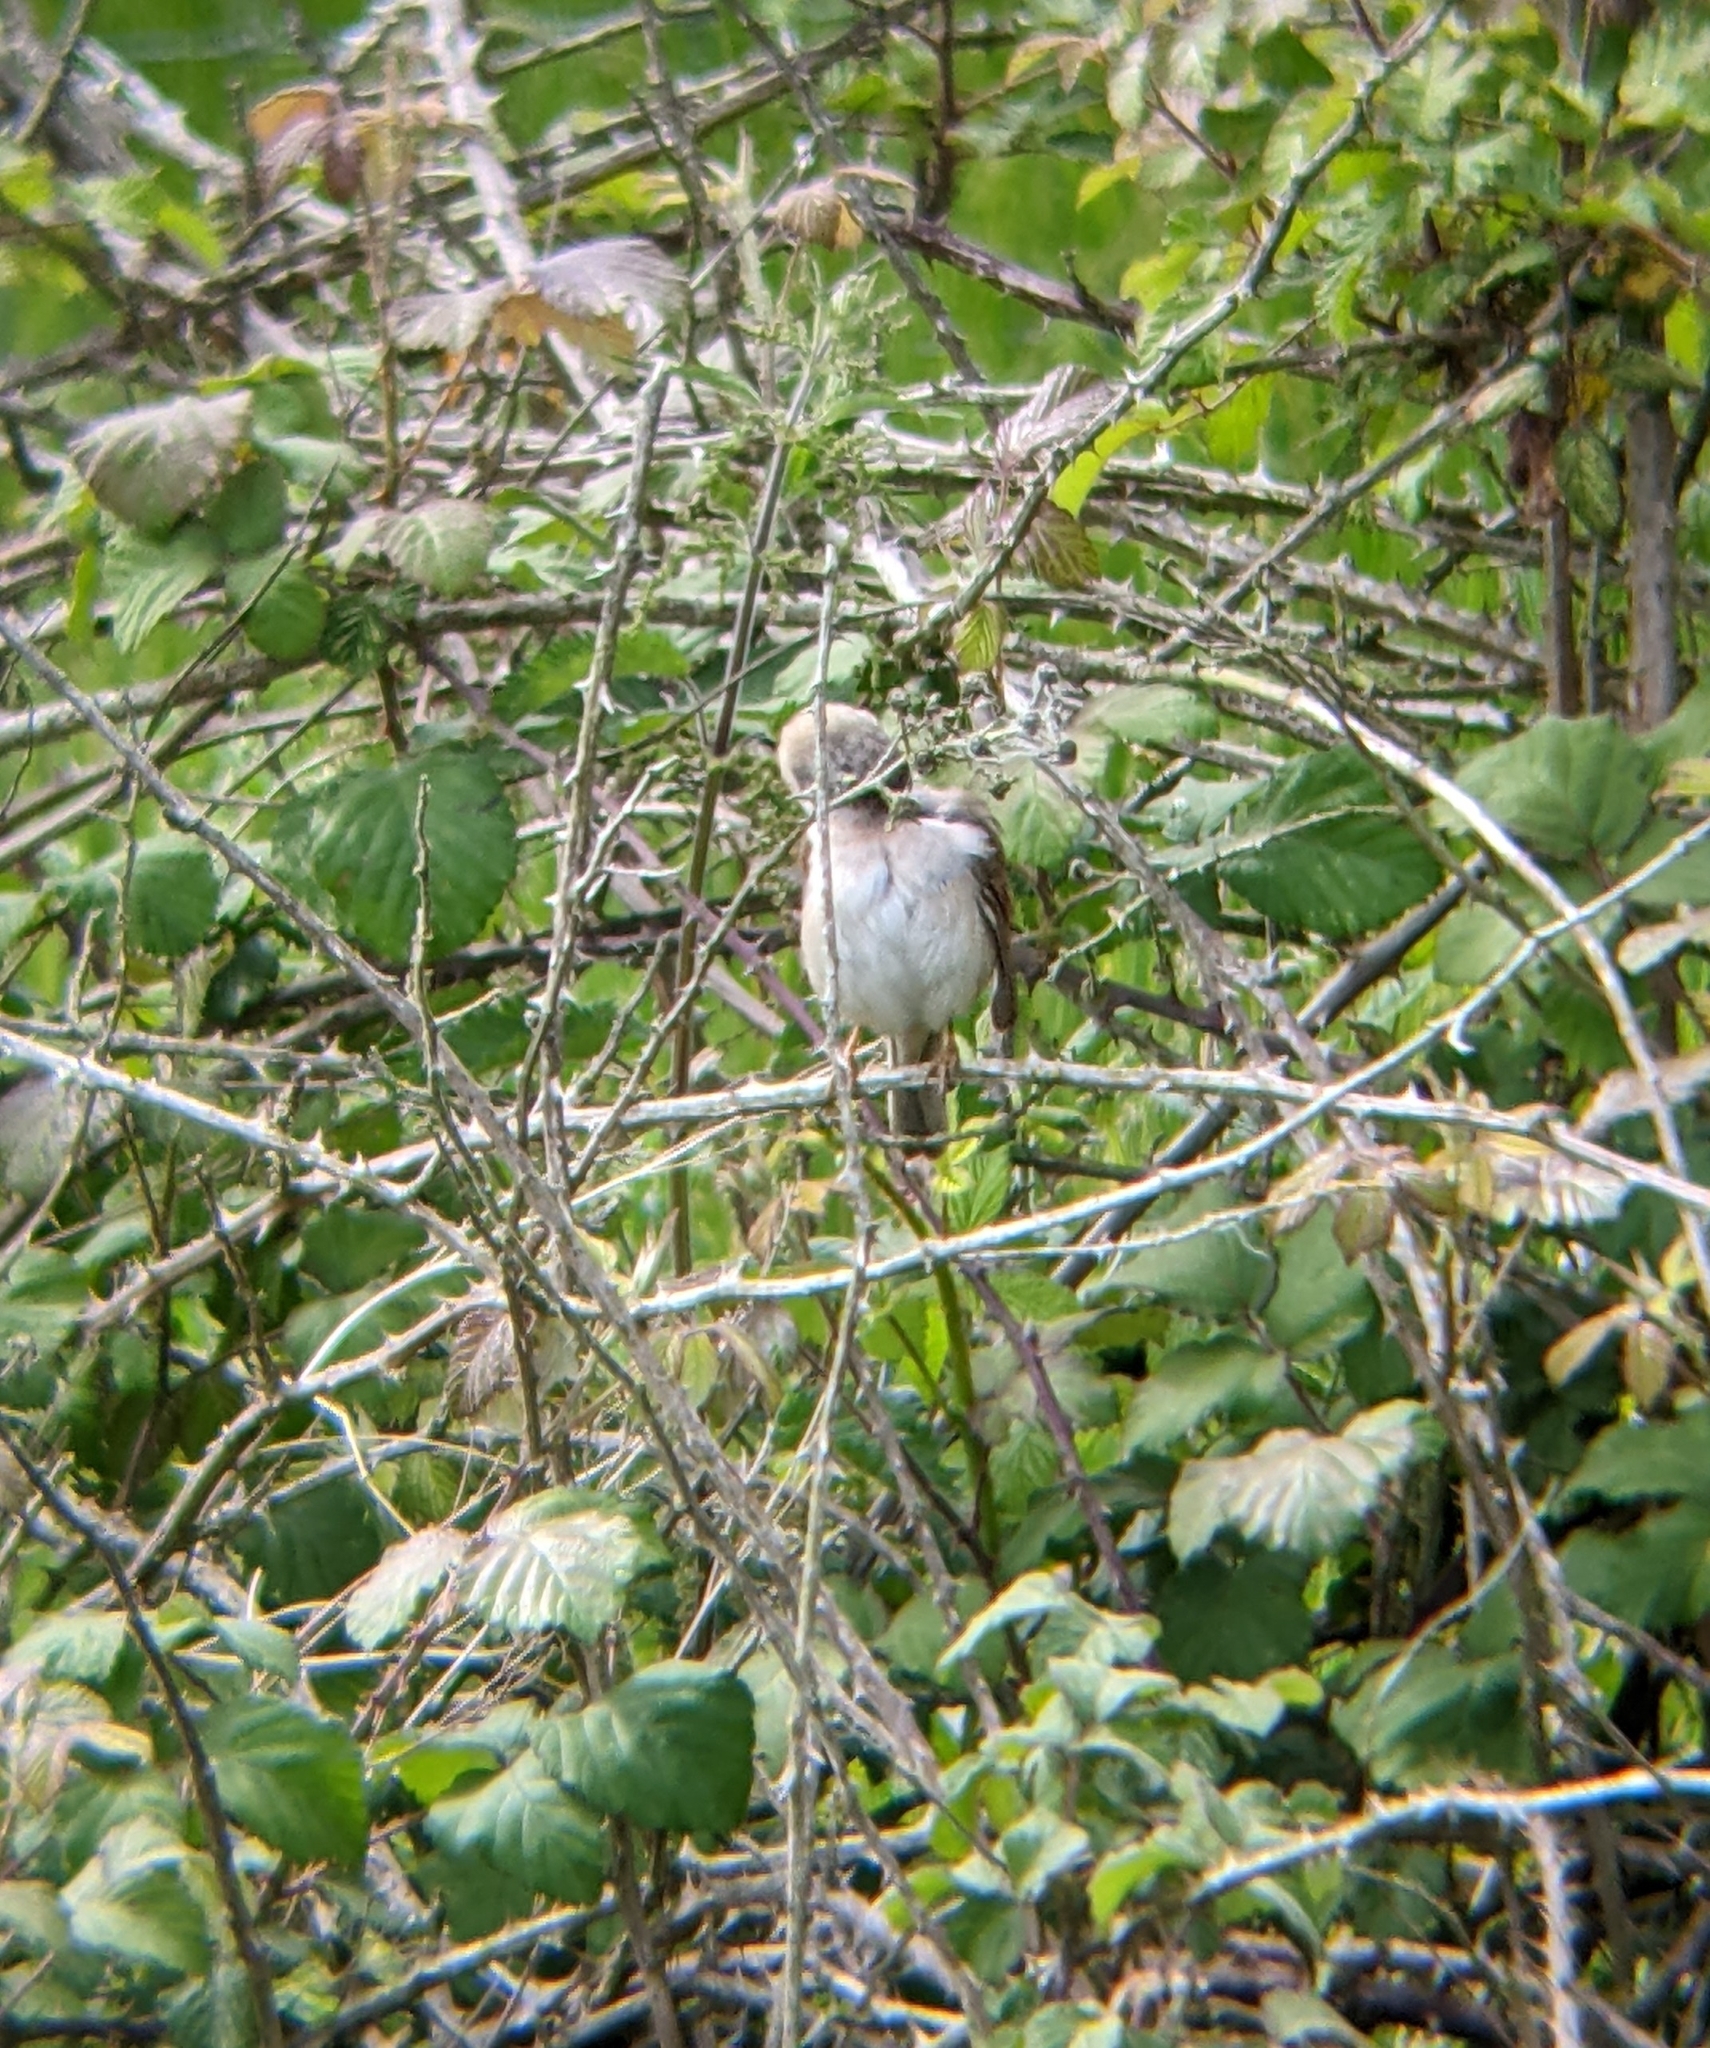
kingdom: Animalia
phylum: Chordata
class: Aves
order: Passeriformes
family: Sylviidae
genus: Sylvia
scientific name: Sylvia communis
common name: Common whitethroat
